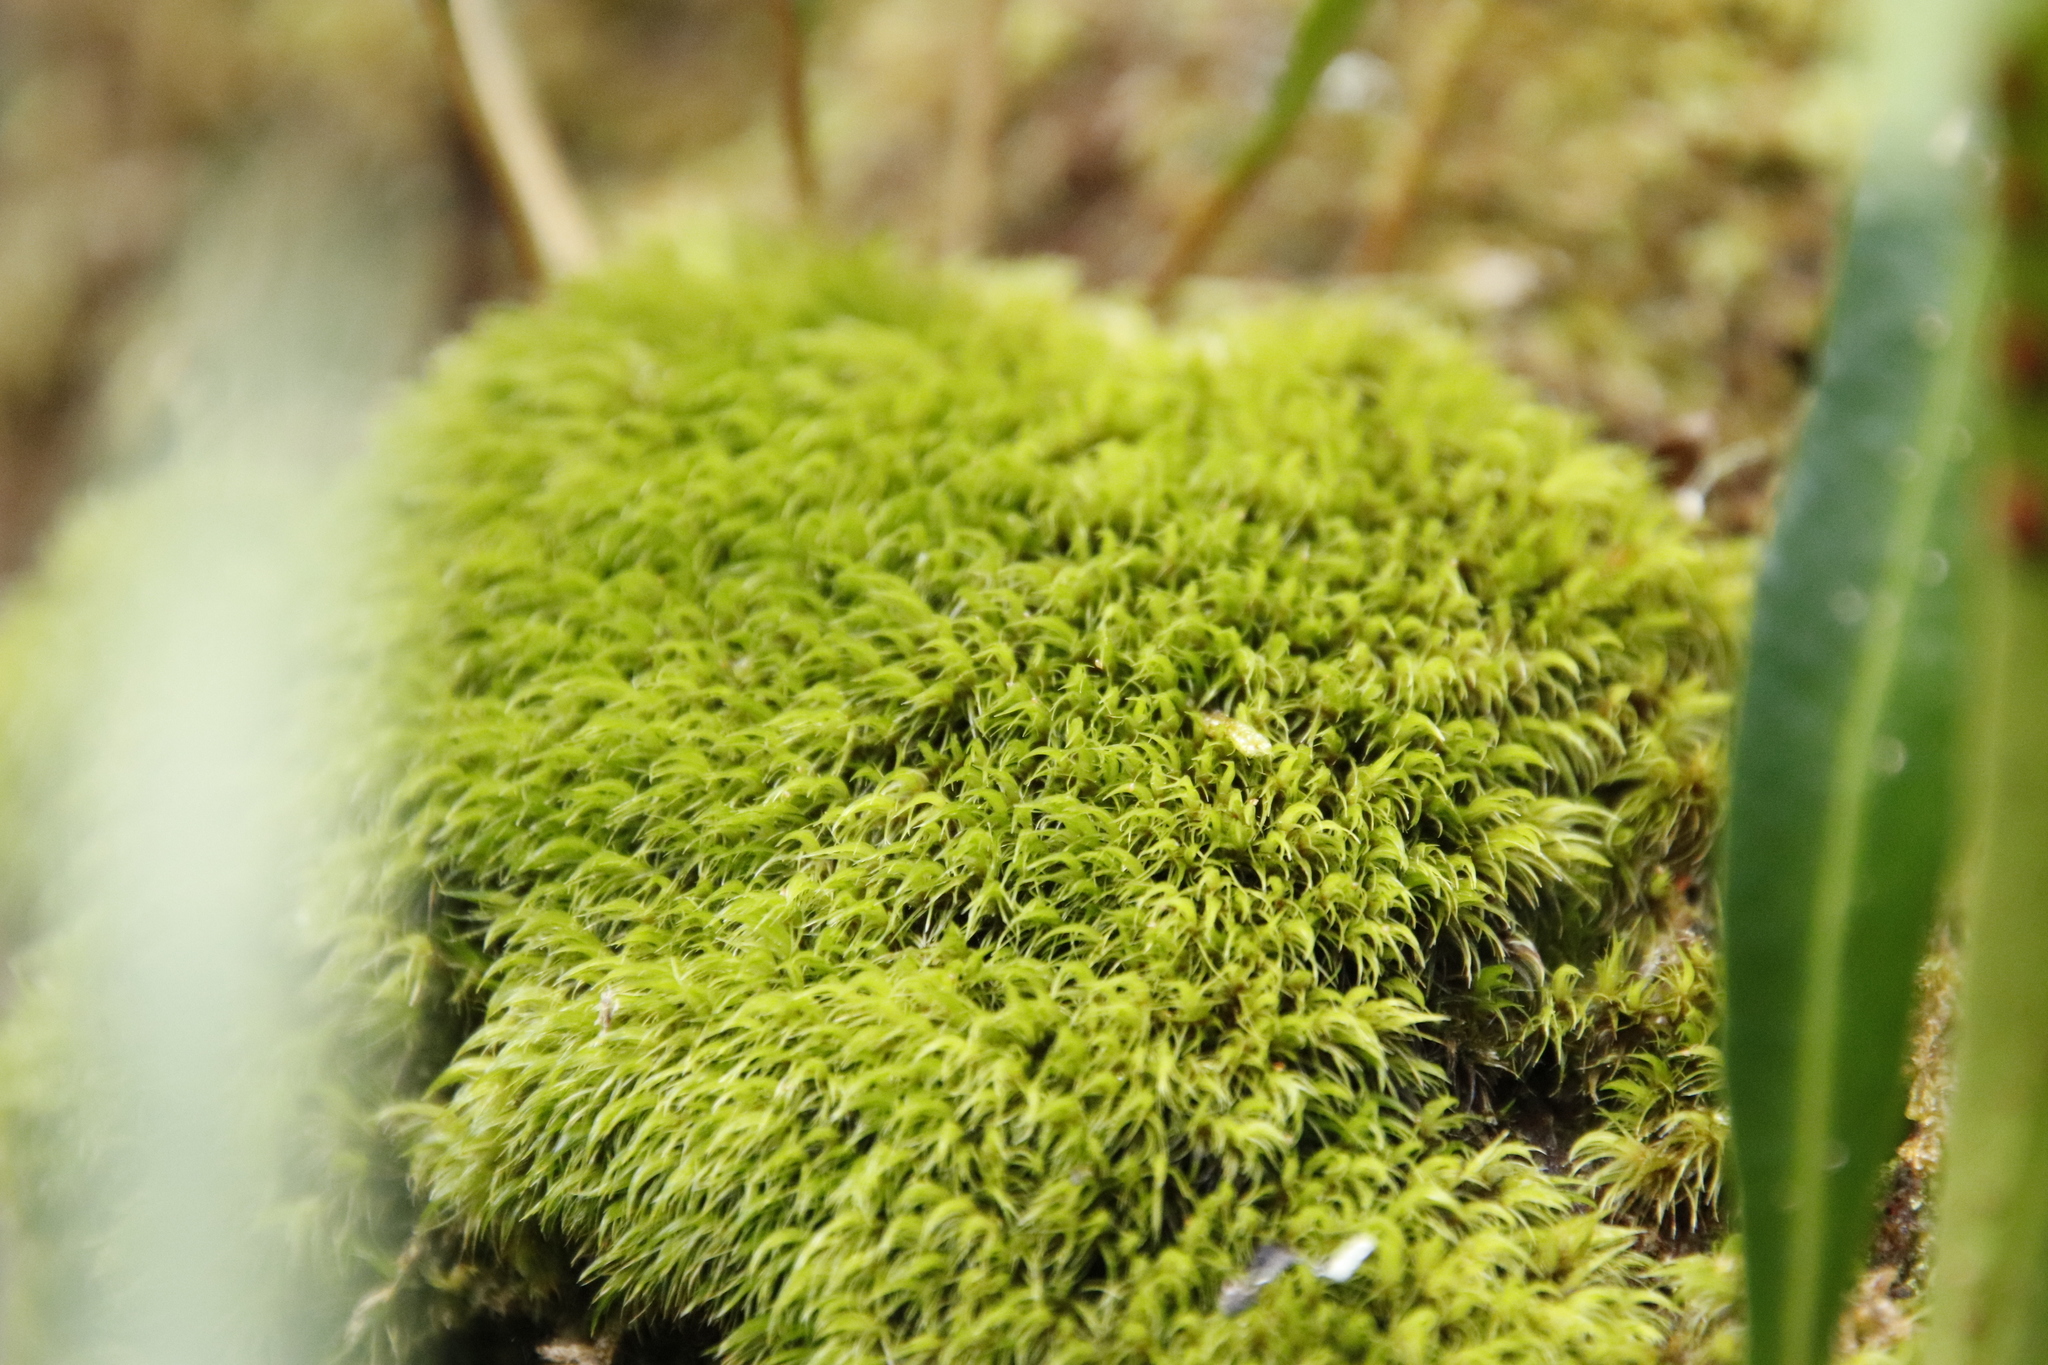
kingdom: Plantae
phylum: Bryophyta
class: Bryopsida
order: Dicranales
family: Dicranaceae
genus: Leucoloma
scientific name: Leucoloma sprengelianum
